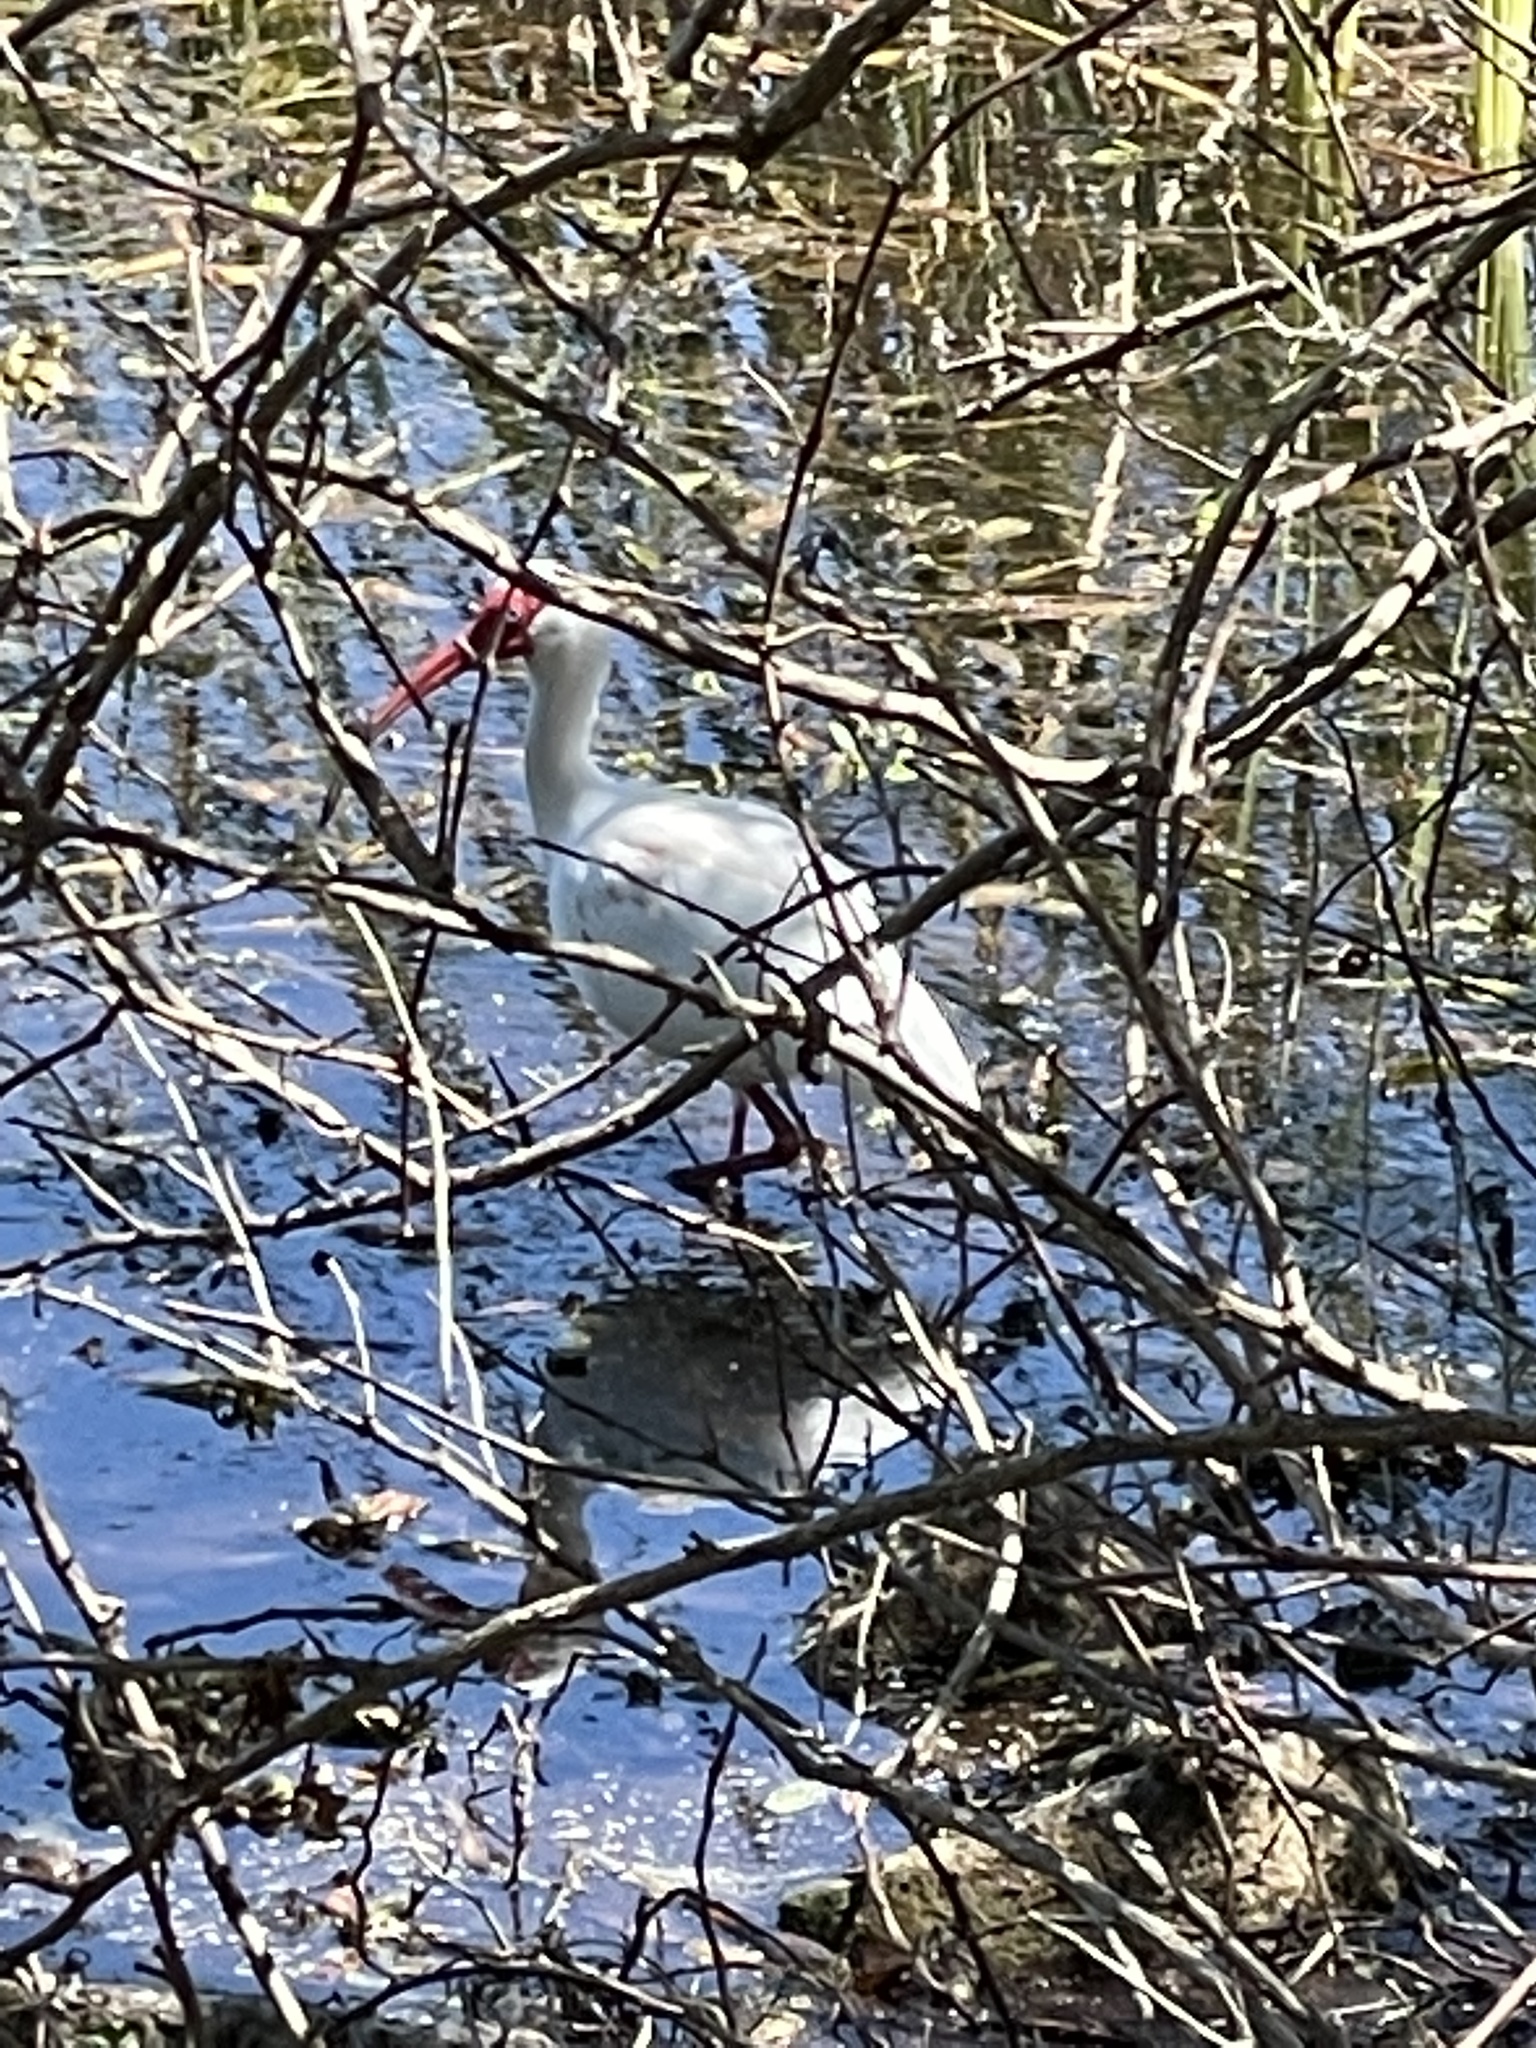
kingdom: Animalia
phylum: Chordata
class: Aves
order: Pelecaniformes
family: Threskiornithidae
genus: Eudocimus
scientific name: Eudocimus albus
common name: White ibis
